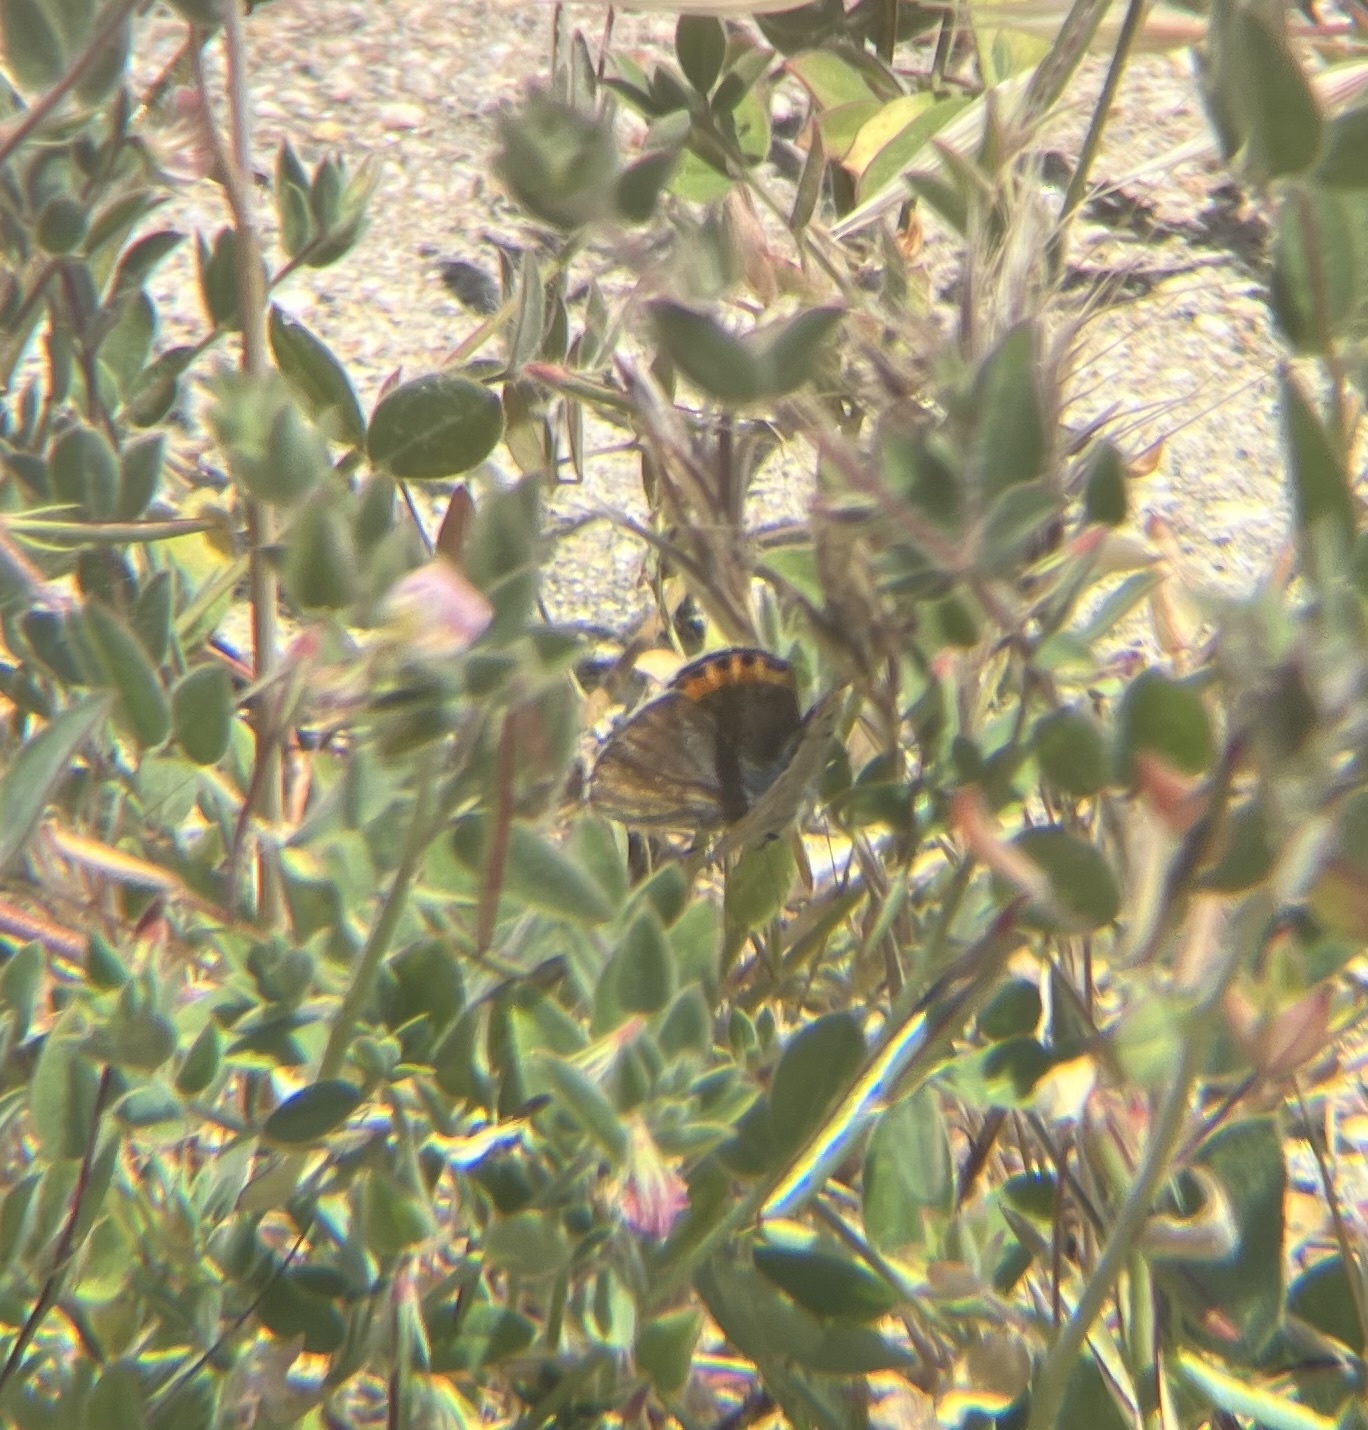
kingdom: Animalia
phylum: Arthropoda
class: Insecta
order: Lepidoptera
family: Lycaenidae
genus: Icaricia
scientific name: Icaricia acmon
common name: Acmon blue
